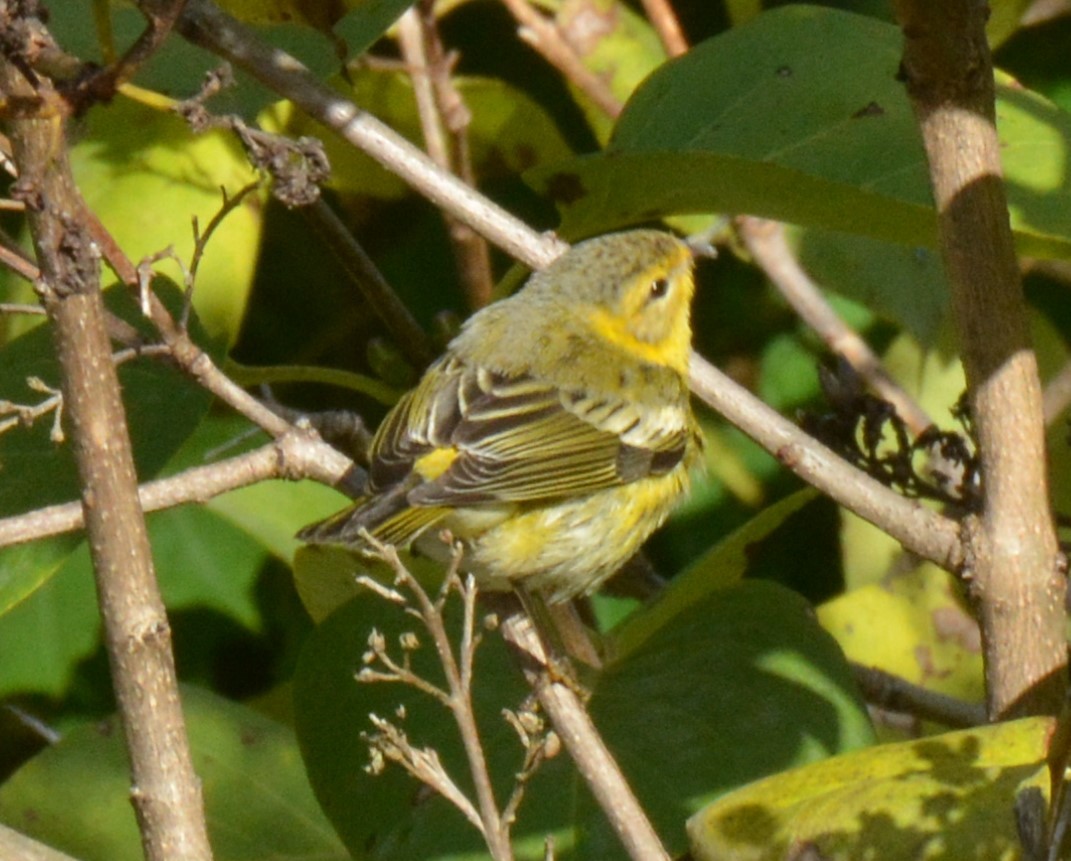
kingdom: Animalia
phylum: Chordata
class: Aves
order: Passeriformes
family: Parulidae
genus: Setophaga
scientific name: Setophaga tigrina
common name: Cape may warbler
